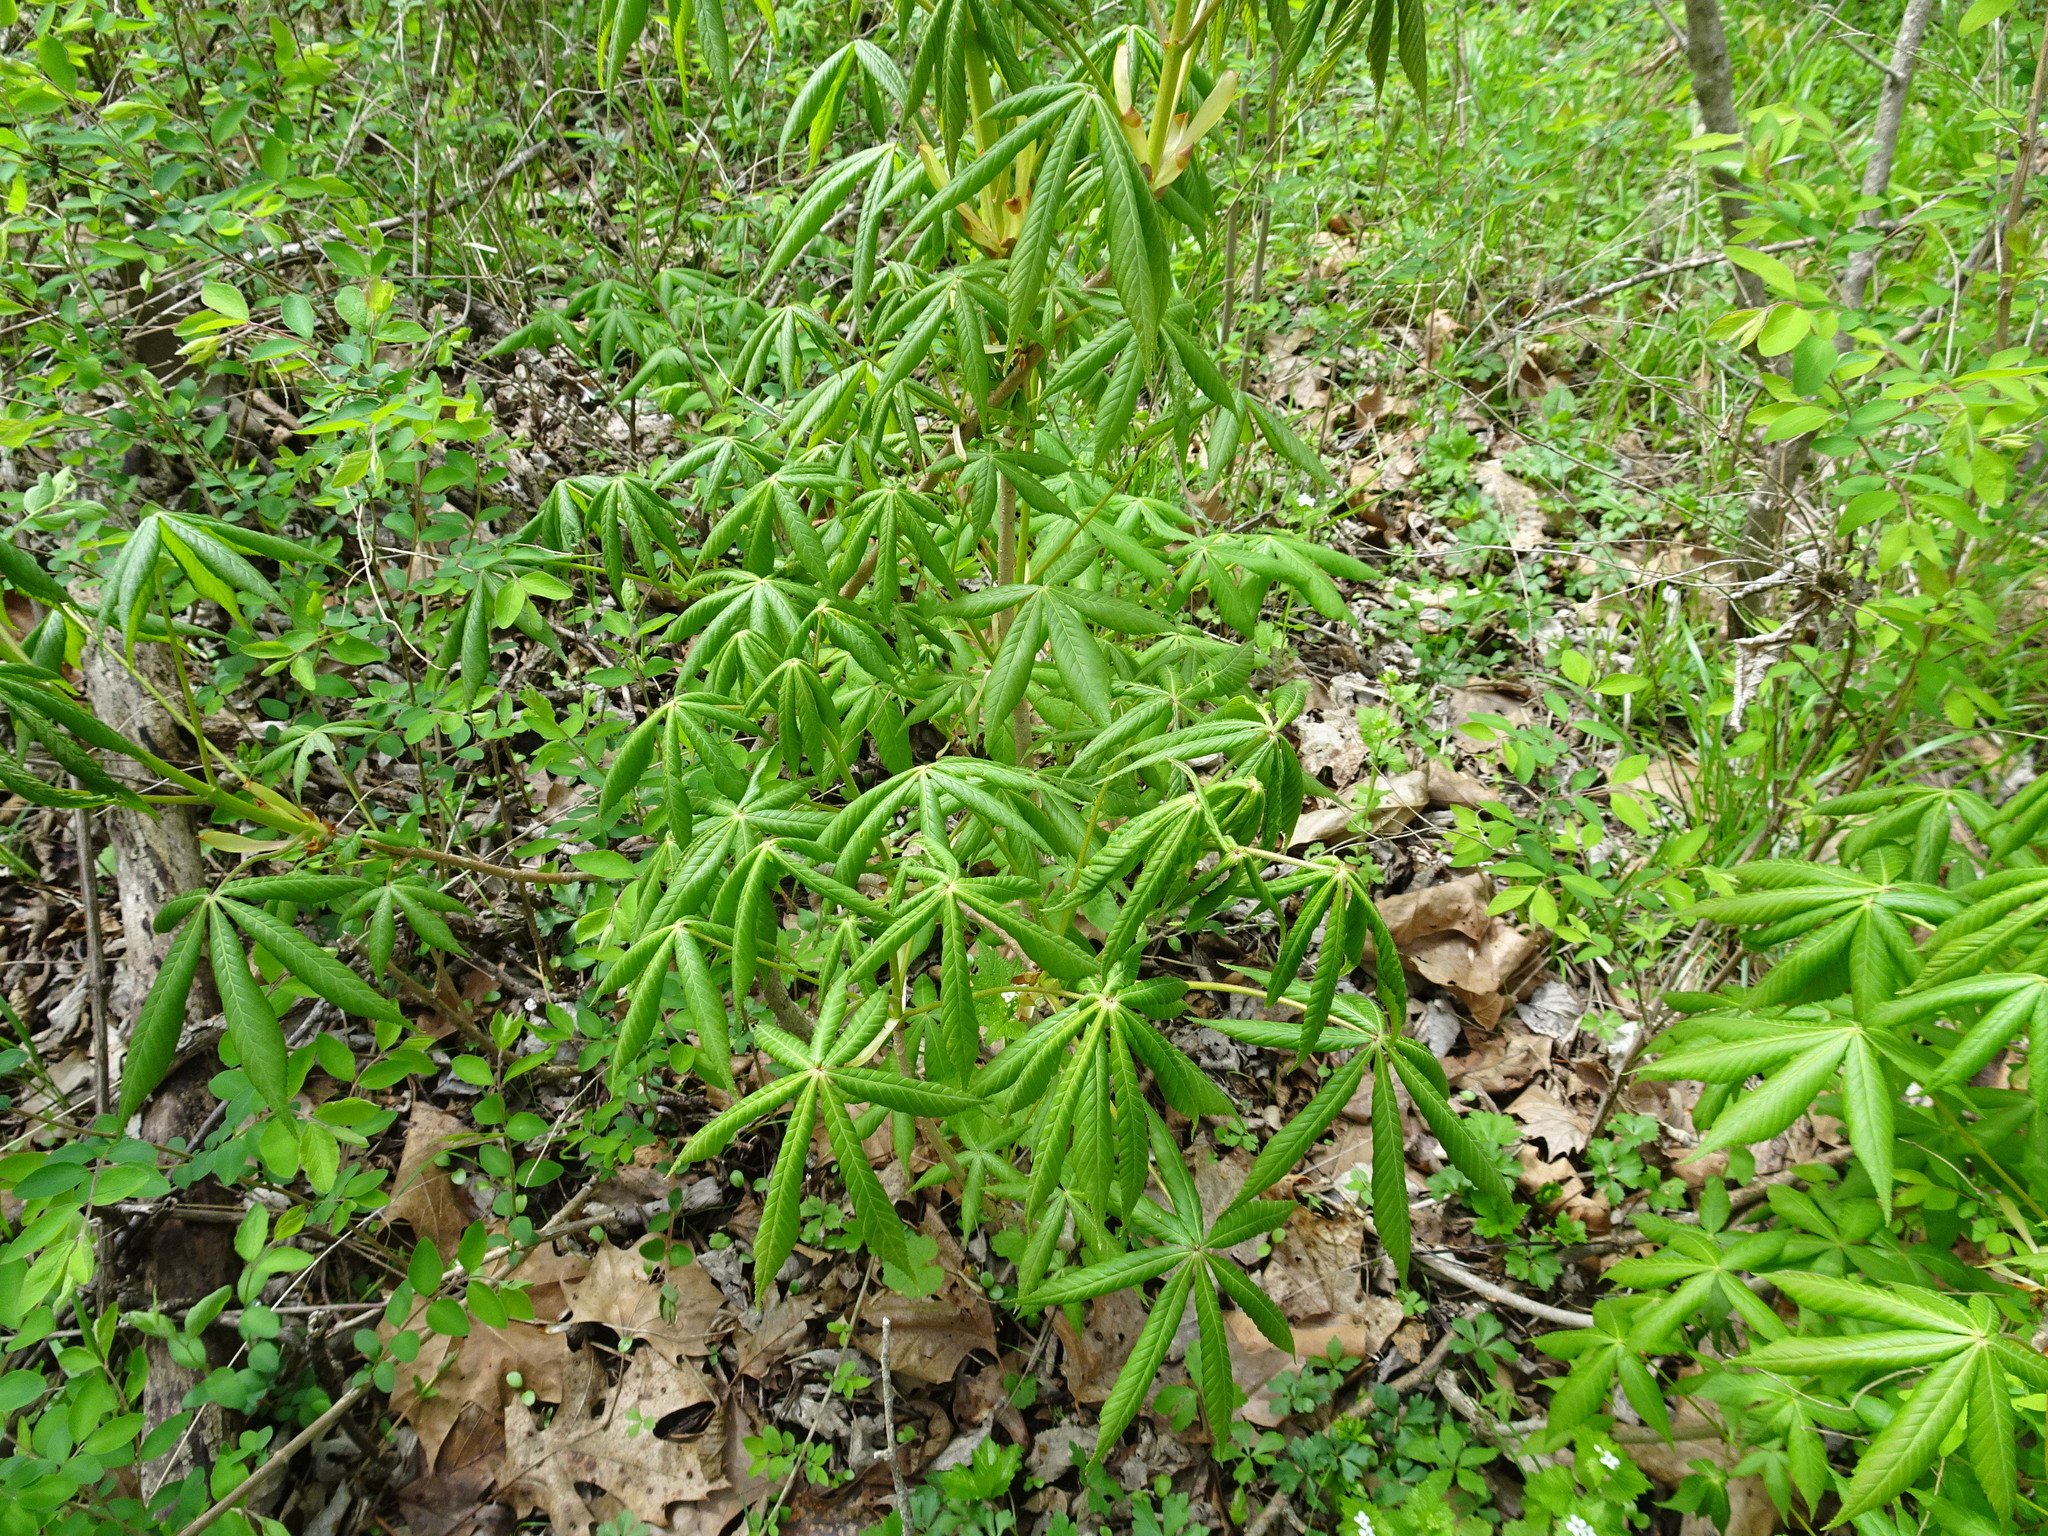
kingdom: Plantae
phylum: Tracheophyta
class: Magnoliopsida
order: Sapindales
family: Sapindaceae
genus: Aesculus
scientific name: Aesculus glabra
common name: Ohio buckeye
